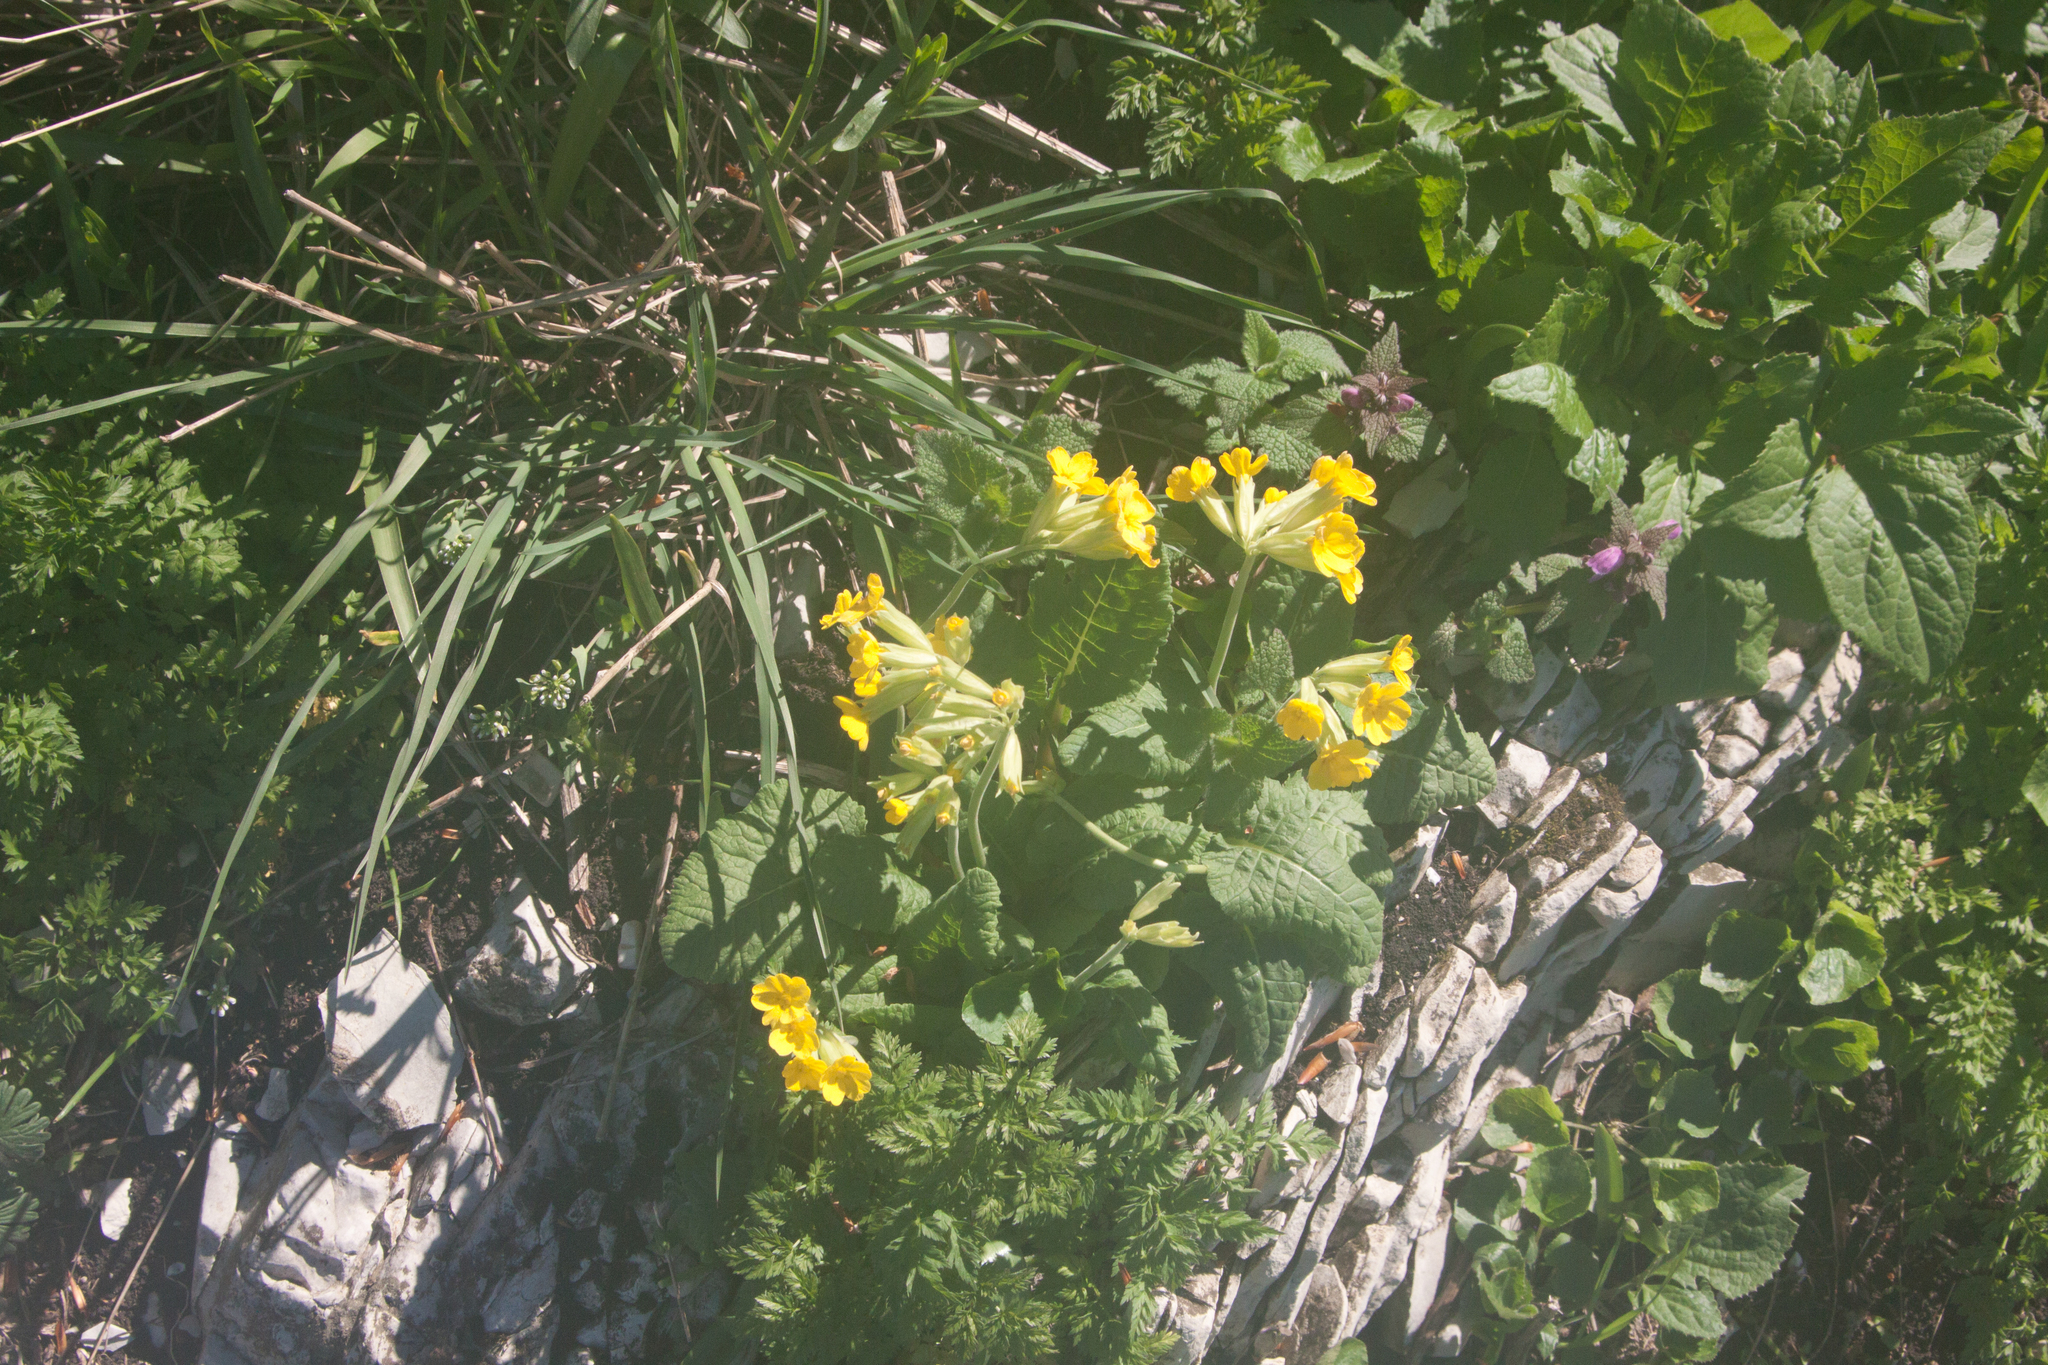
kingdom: Plantae
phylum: Tracheophyta
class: Magnoliopsida
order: Ericales
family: Primulaceae
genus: Primula
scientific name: Primula veris
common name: Cowslip
